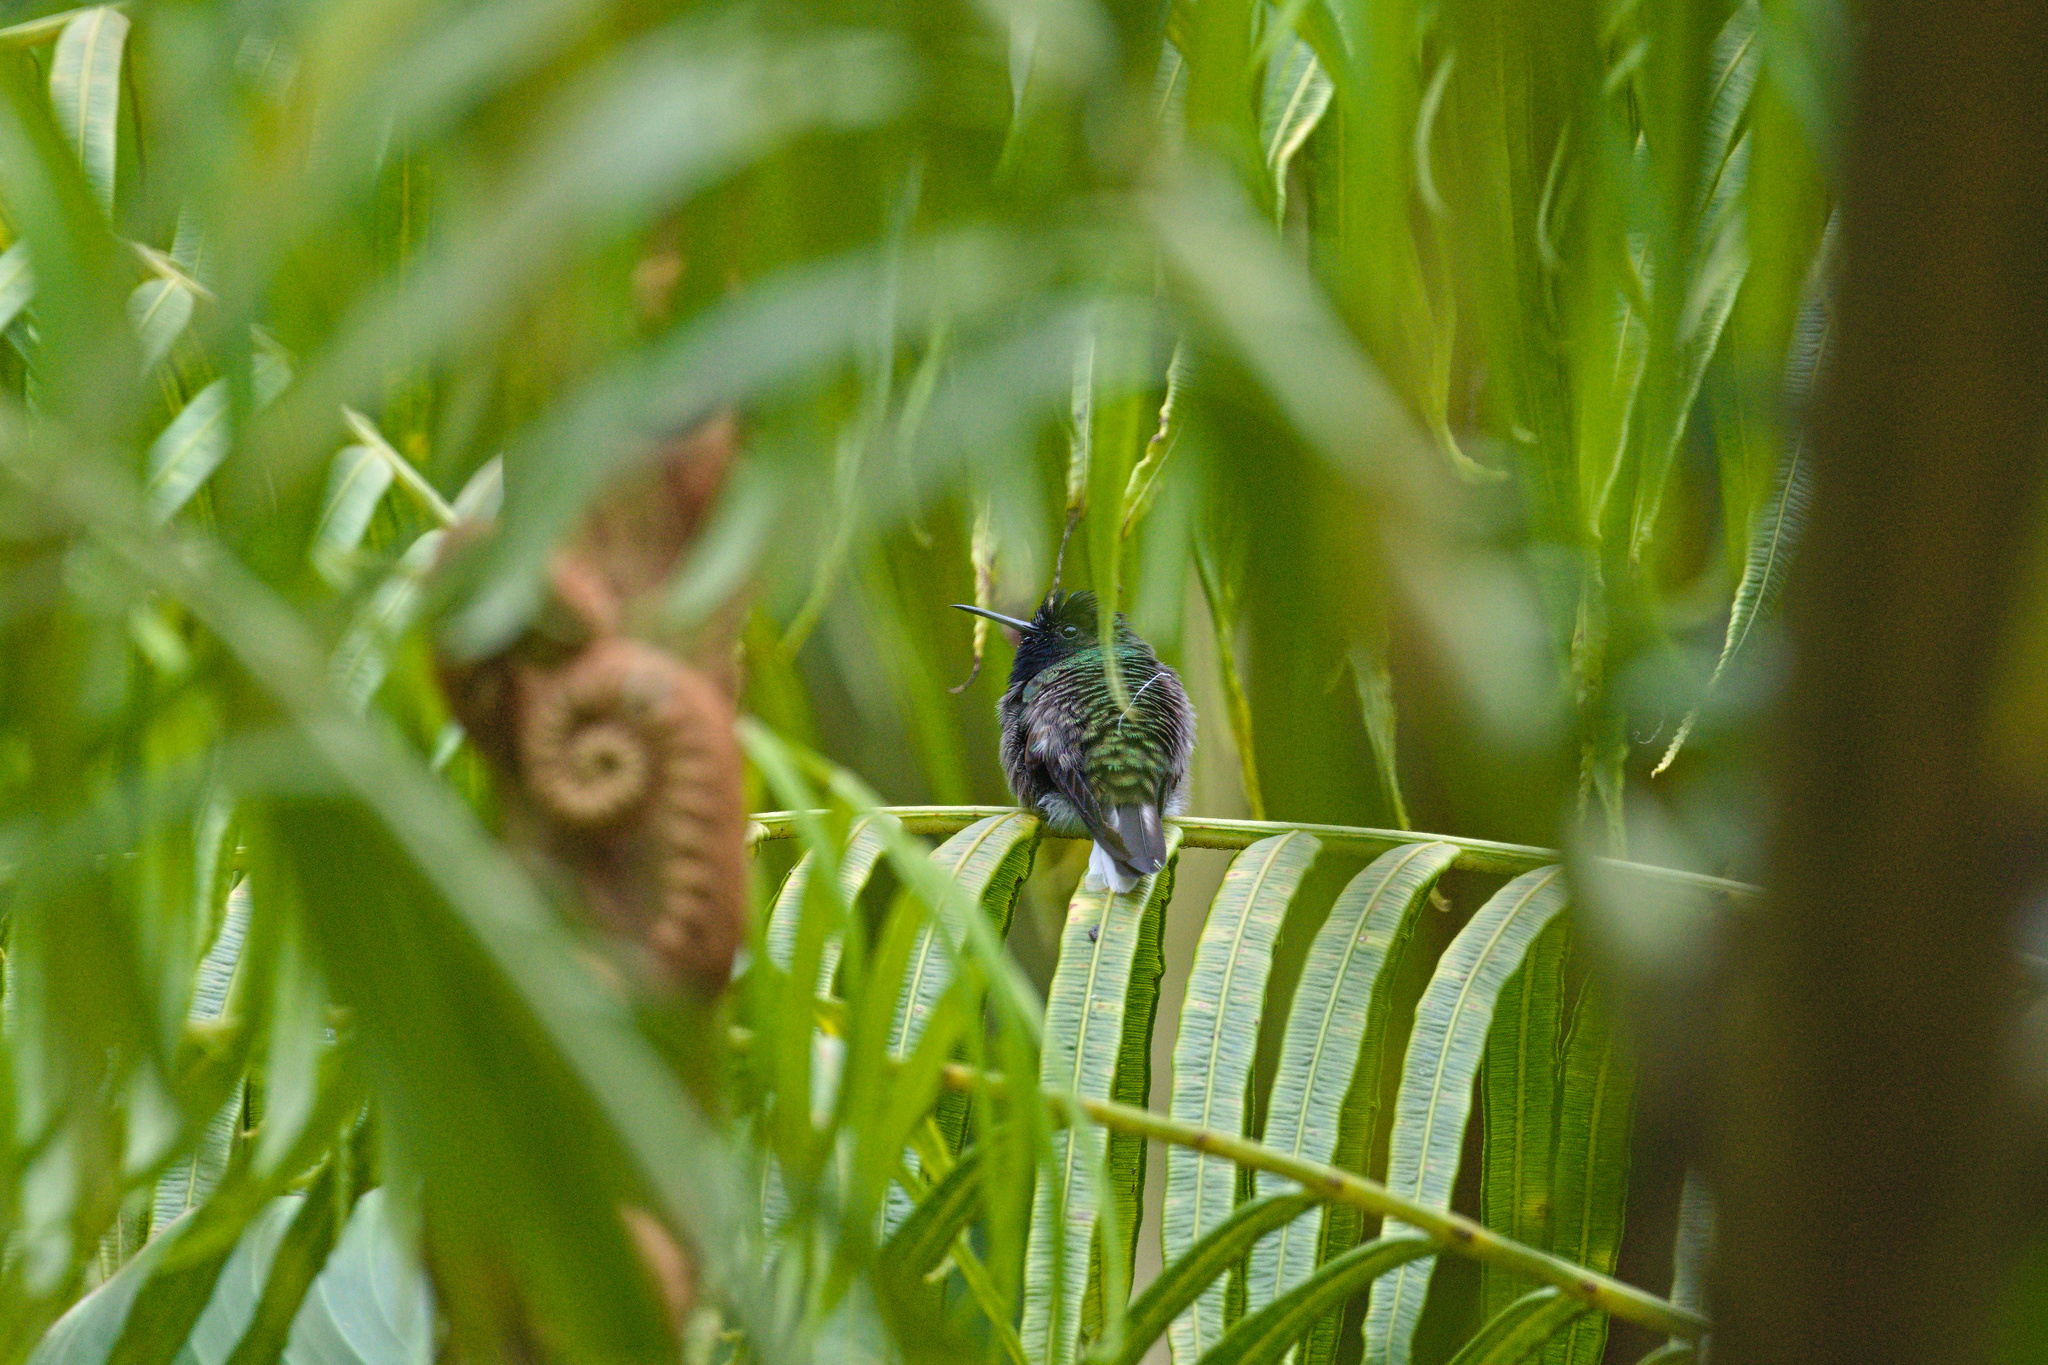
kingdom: Animalia
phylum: Chordata
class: Aves
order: Apodiformes
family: Trochilidae
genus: Eupherusa
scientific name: Eupherusa nigriventris
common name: Black-bellied hummingbird
